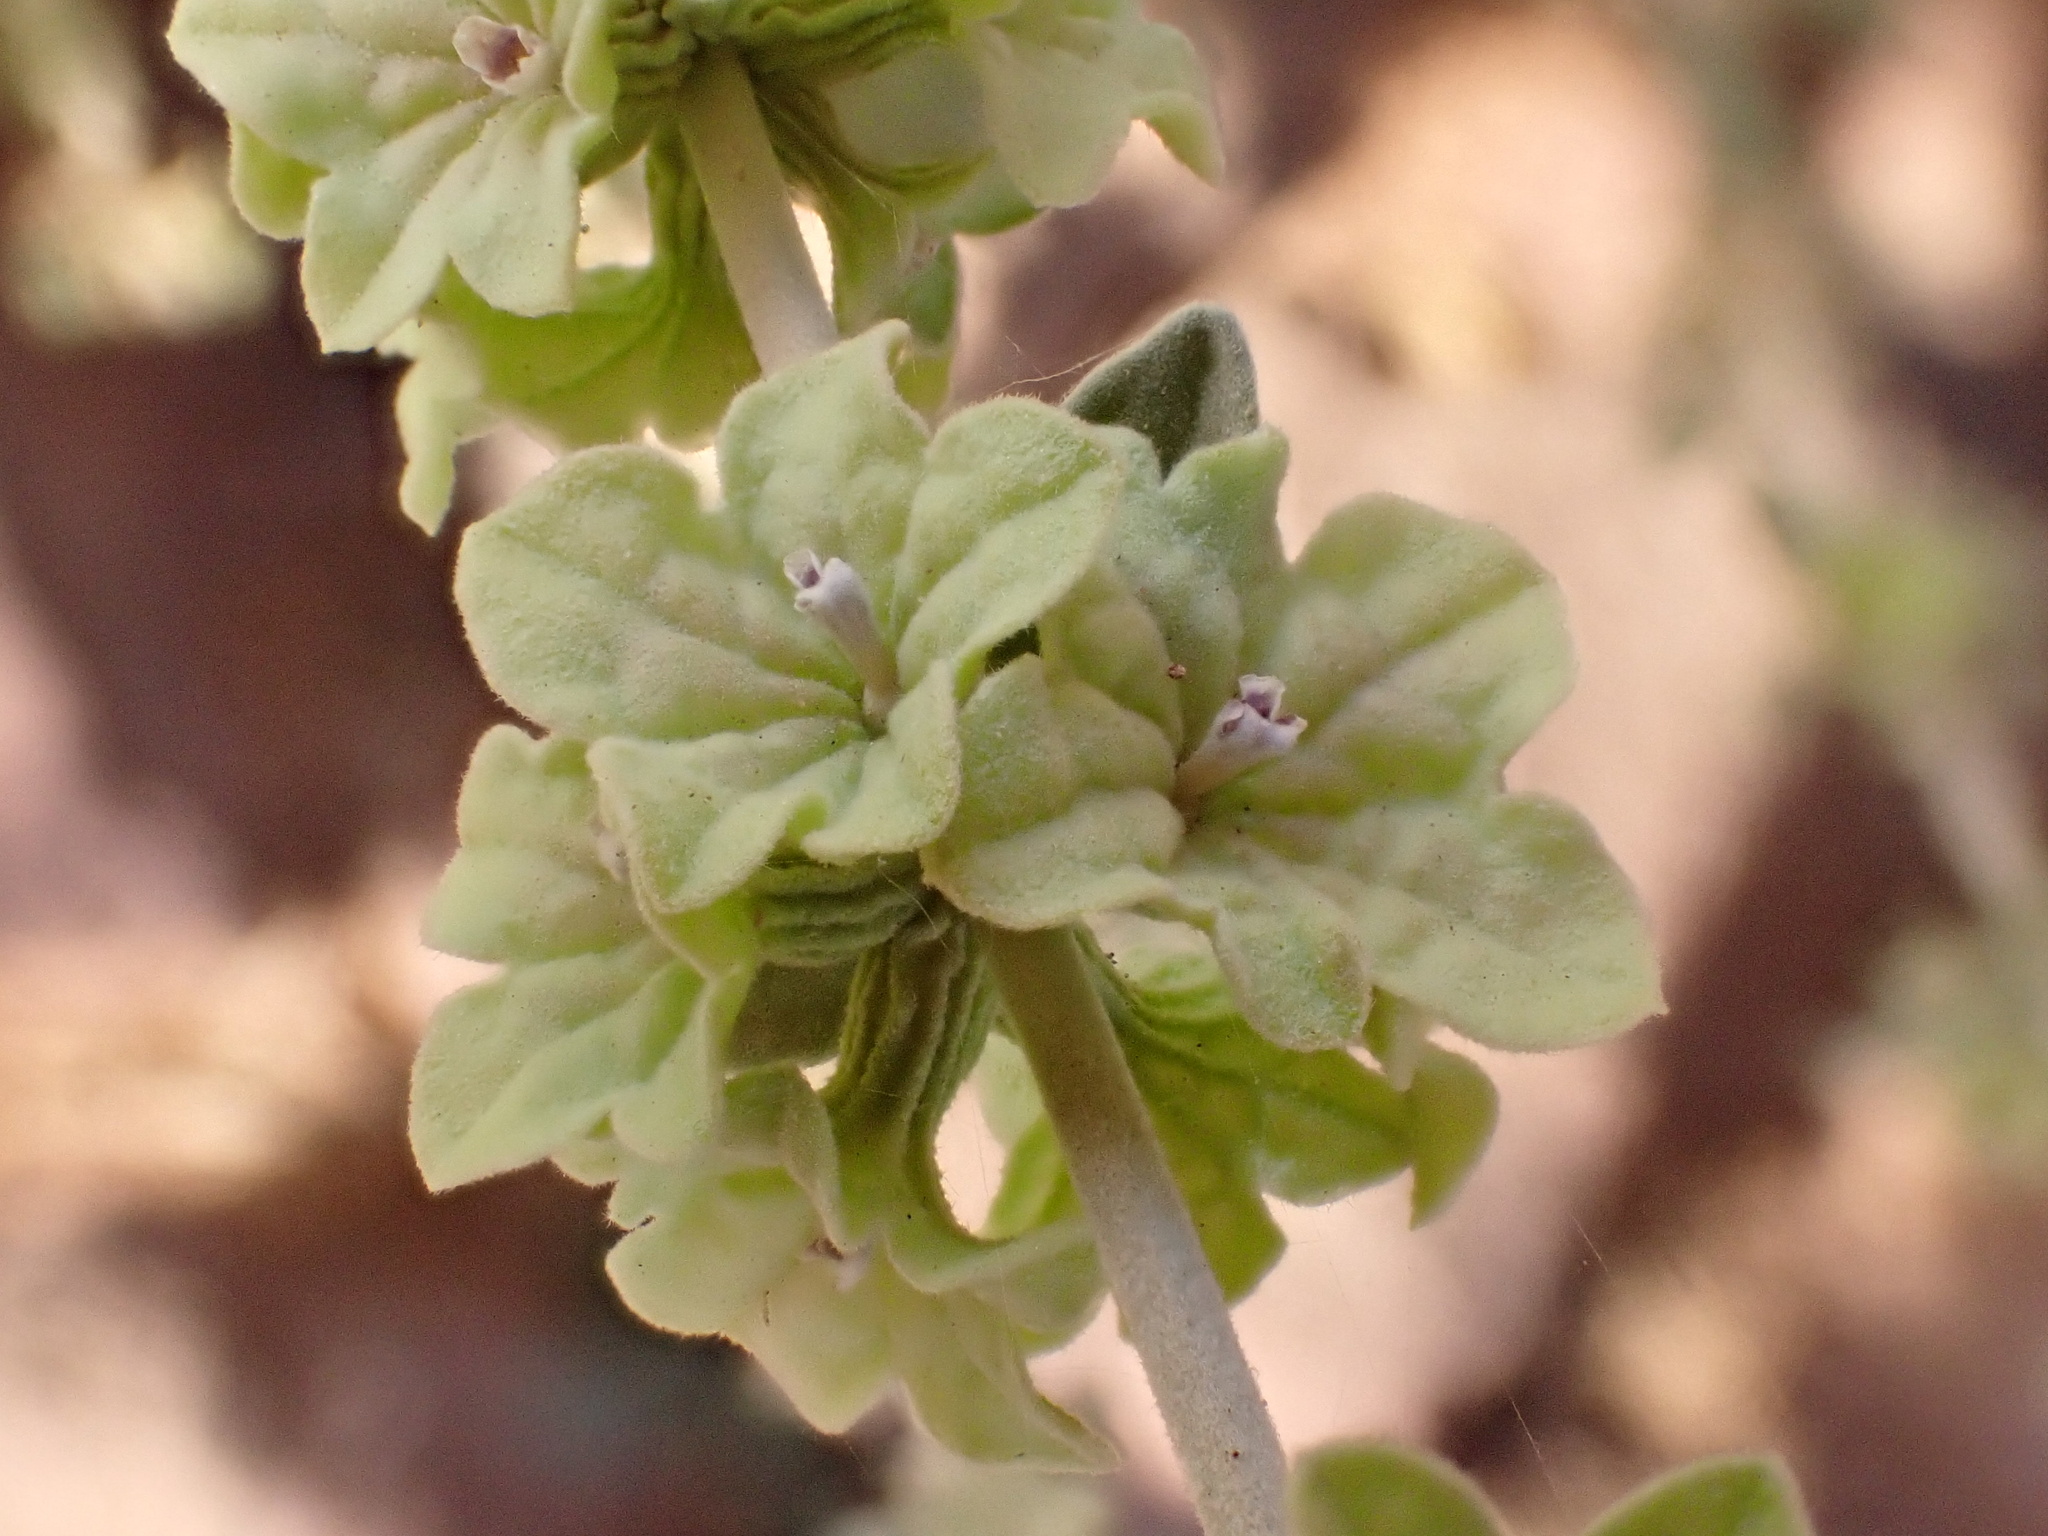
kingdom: Plantae
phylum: Tracheophyta
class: Magnoliopsida
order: Lamiales
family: Lamiaceae
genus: Marrubium
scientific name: Marrubium deserti
